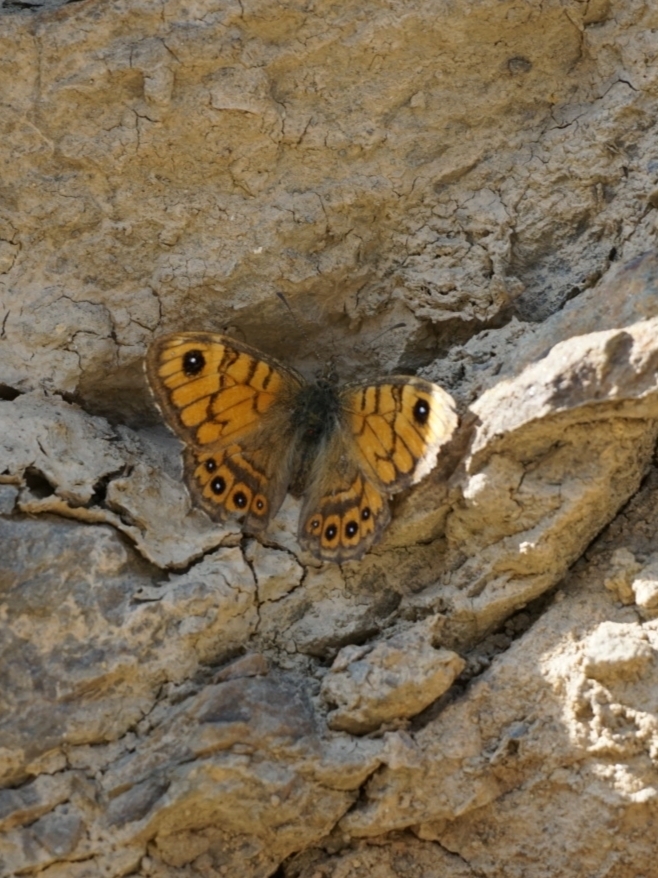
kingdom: Animalia
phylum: Arthropoda
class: Insecta
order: Lepidoptera
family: Nymphalidae
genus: Pararge
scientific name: Pararge Lasiommata megera
